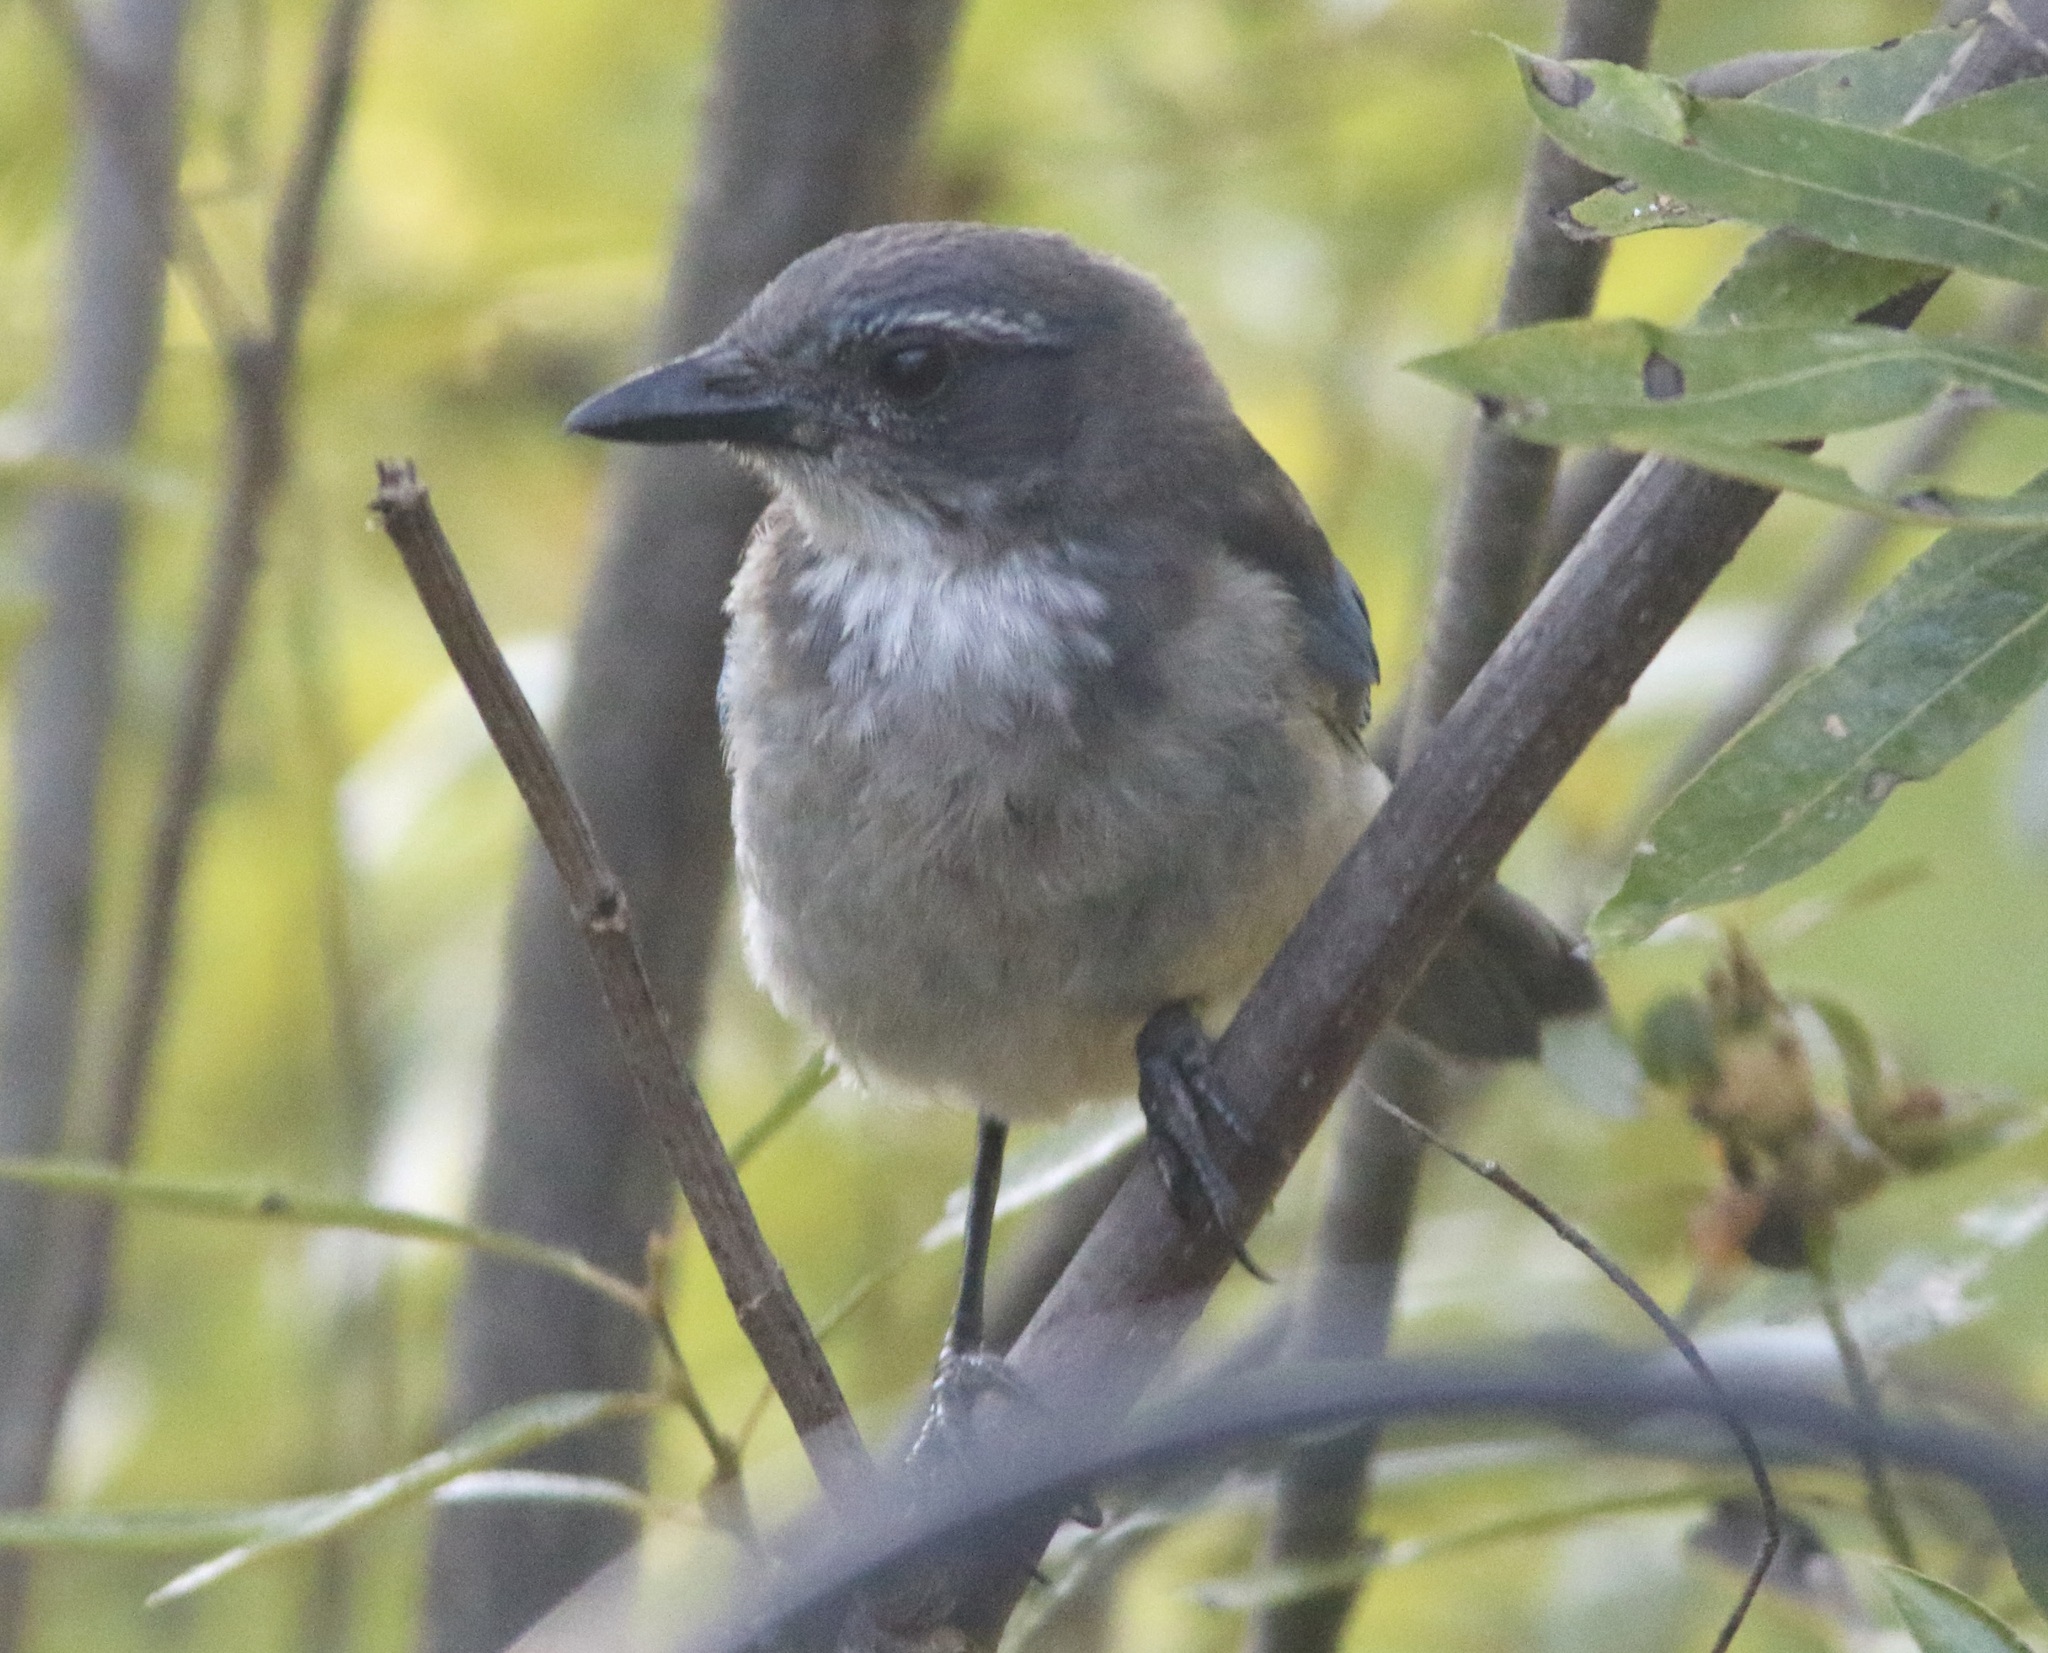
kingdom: Animalia
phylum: Chordata
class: Aves
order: Passeriformes
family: Corvidae
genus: Aphelocoma
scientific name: Aphelocoma californica
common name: California scrub-jay
